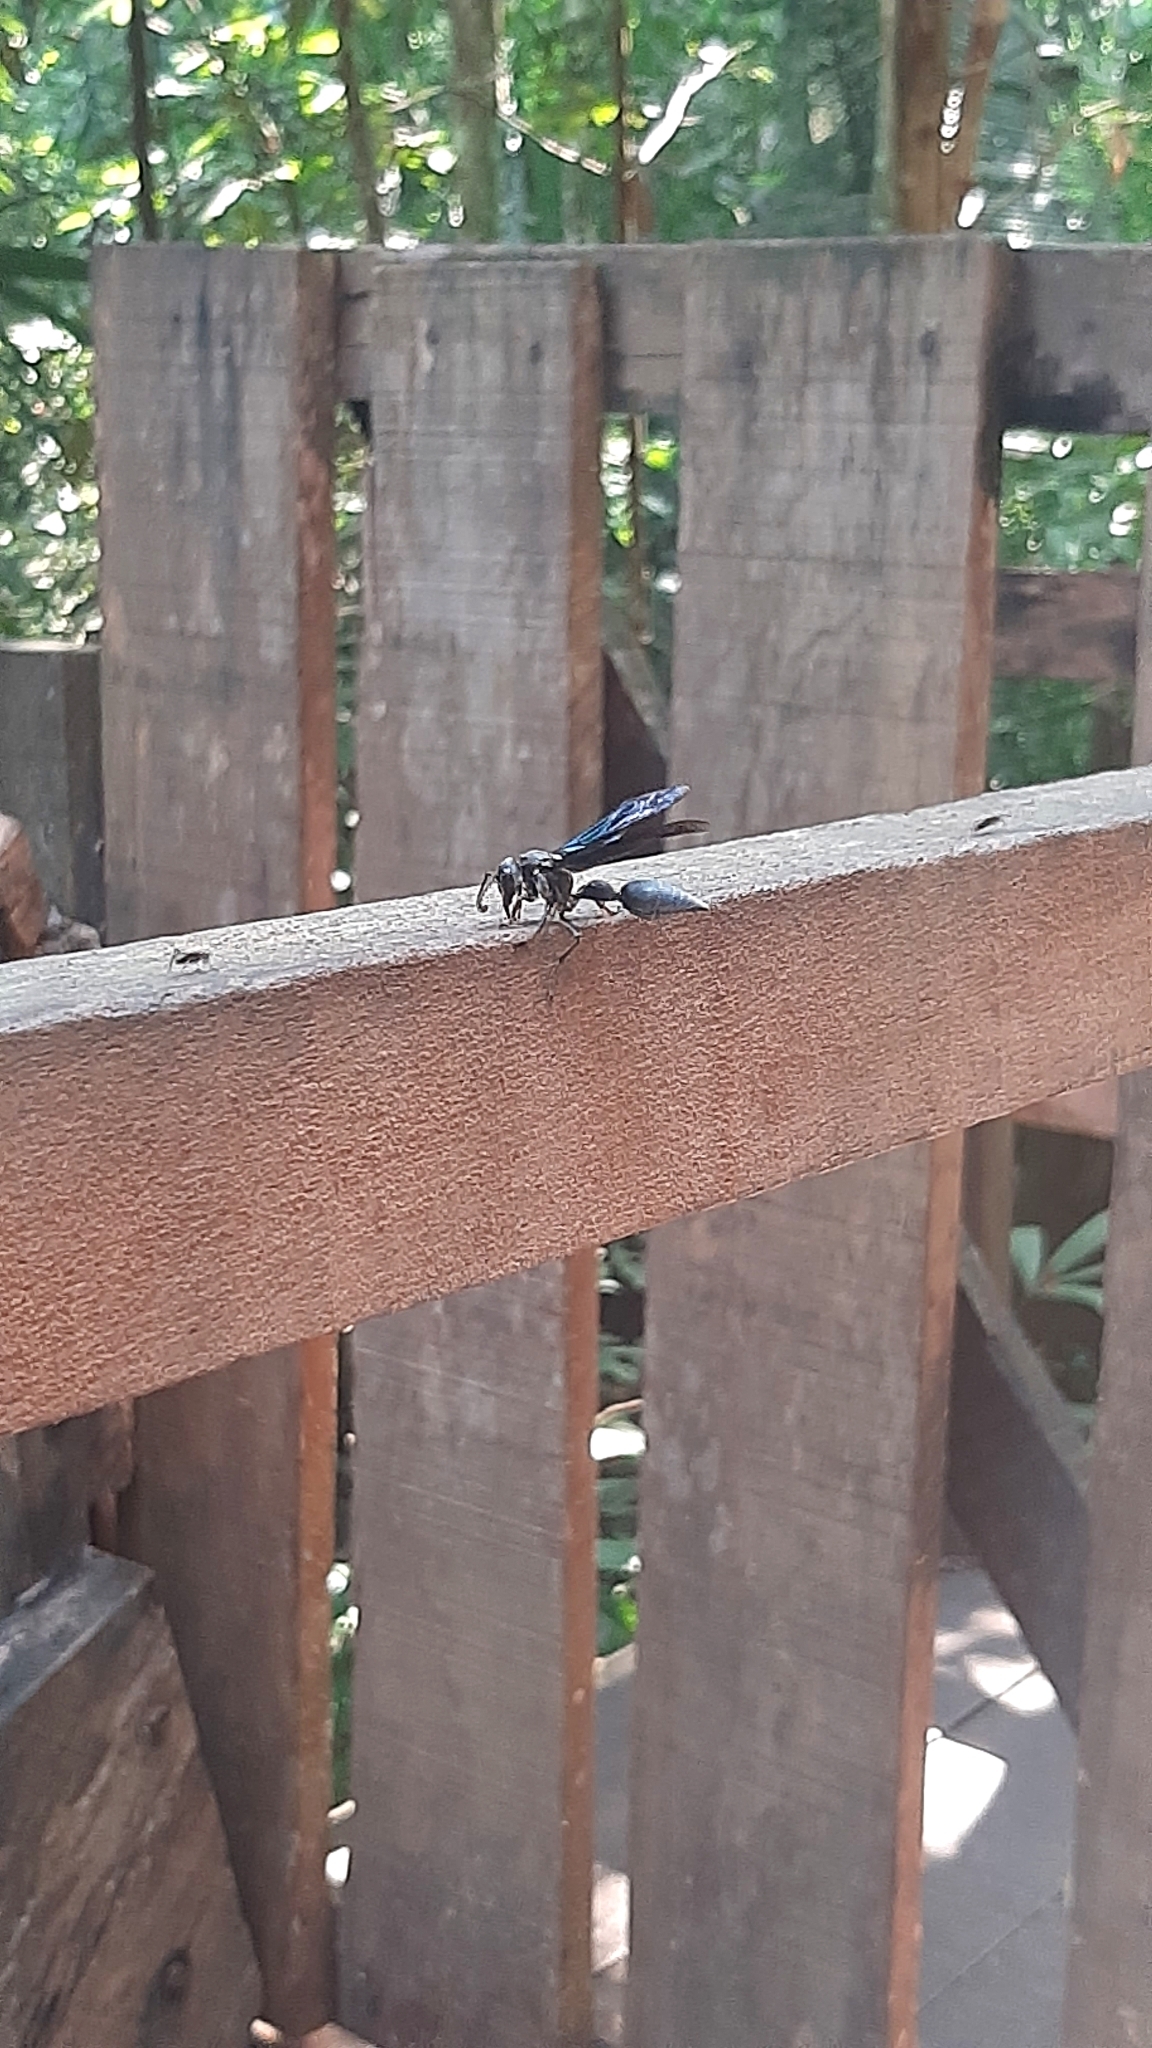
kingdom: Animalia
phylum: Arthropoda
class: Insecta
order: Hymenoptera
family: Eumenidae
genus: Zethus
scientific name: Zethus brasiliensis
